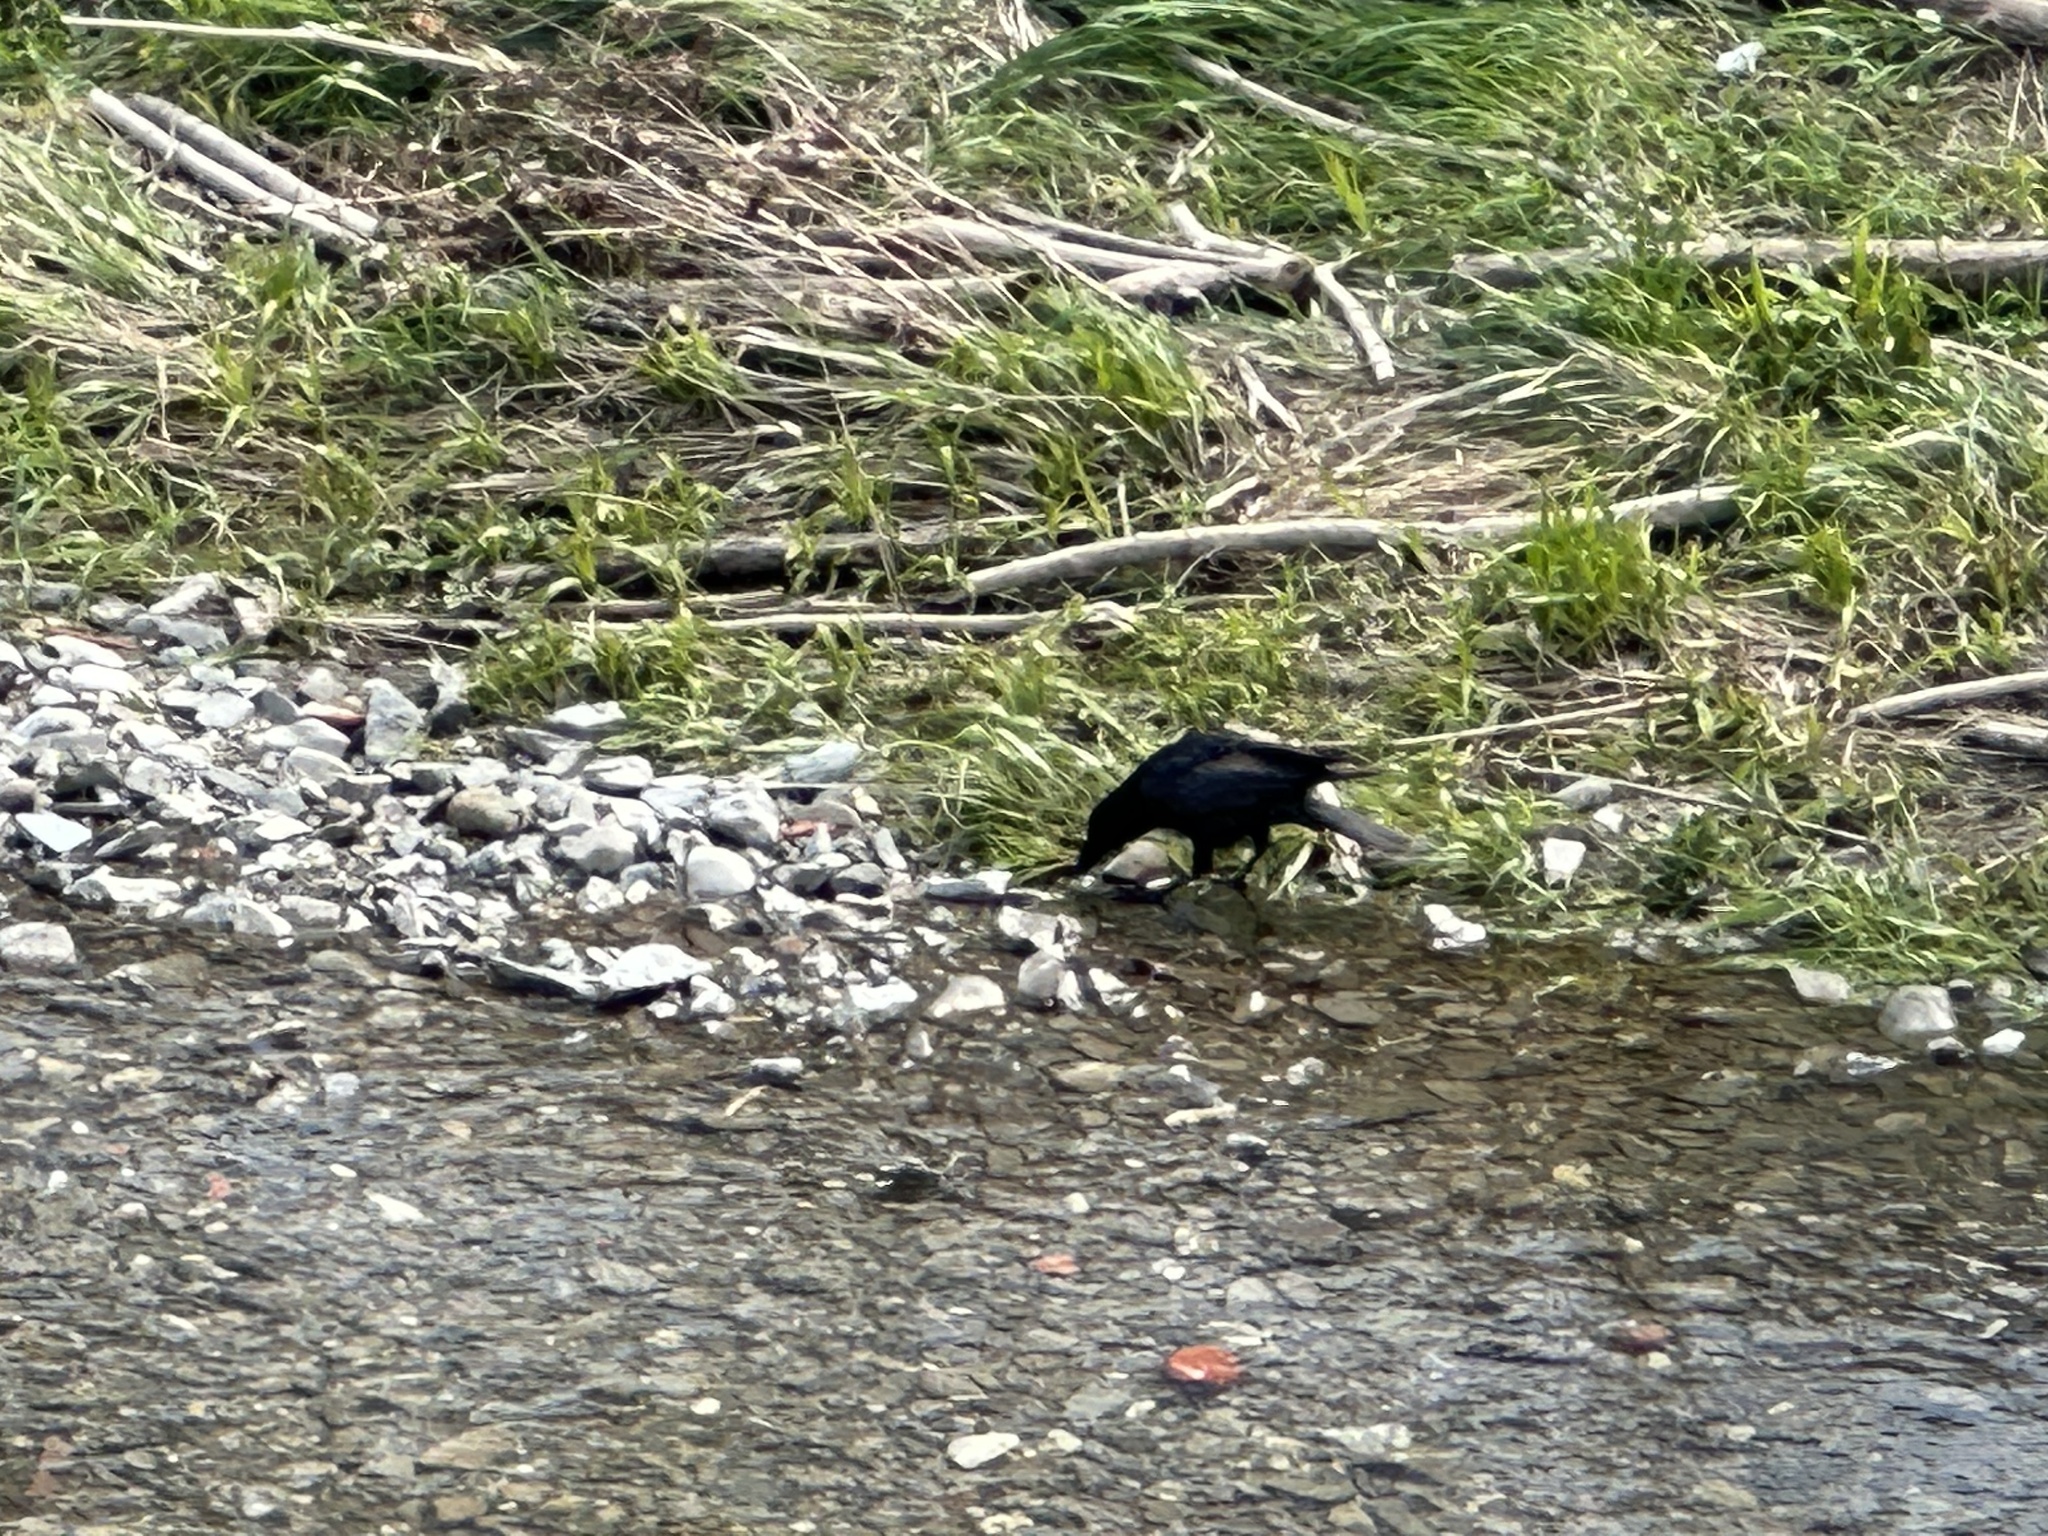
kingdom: Animalia
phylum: Chordata
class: Aves
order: Passeriformes
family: Corvidae
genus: Corvus
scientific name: Corvus corone
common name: Carrion crow
